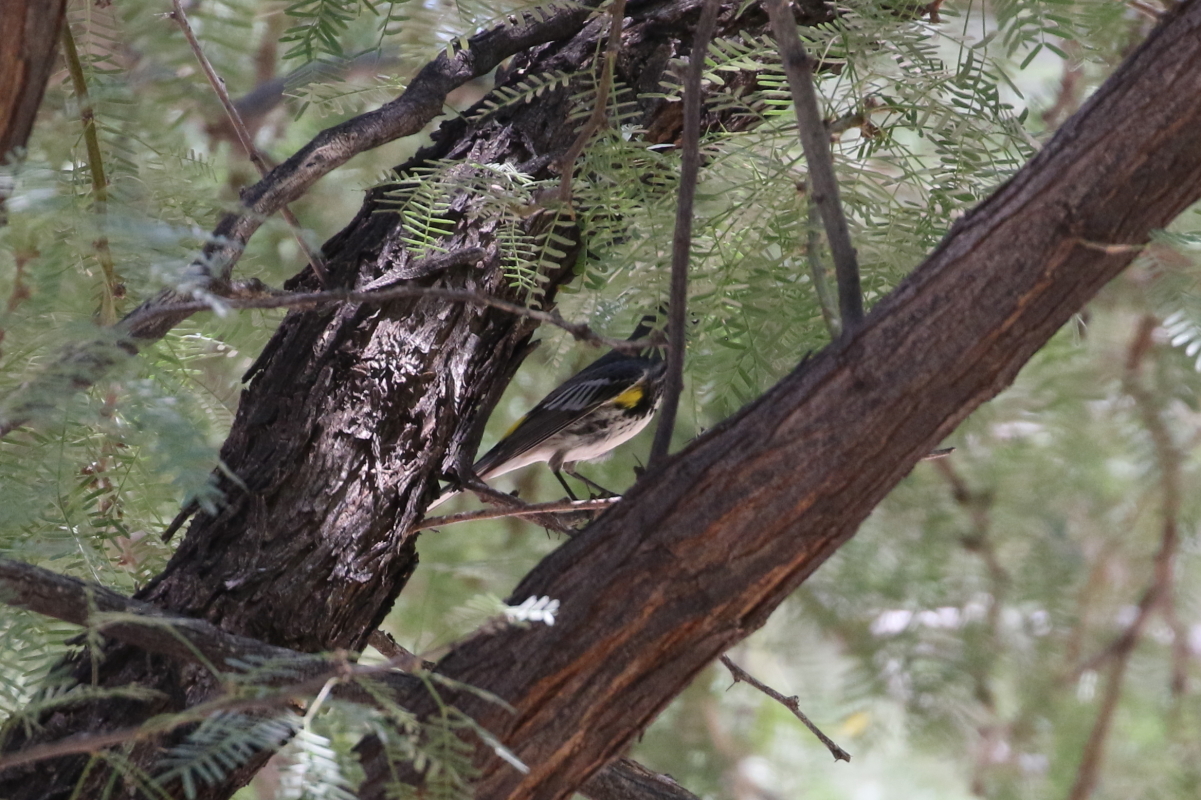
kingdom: Animalia
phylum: Chordata
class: Aves
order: Passeriformes
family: Parulidae
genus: Setophaga
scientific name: Setophaga coronata
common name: Myrtle warbler
